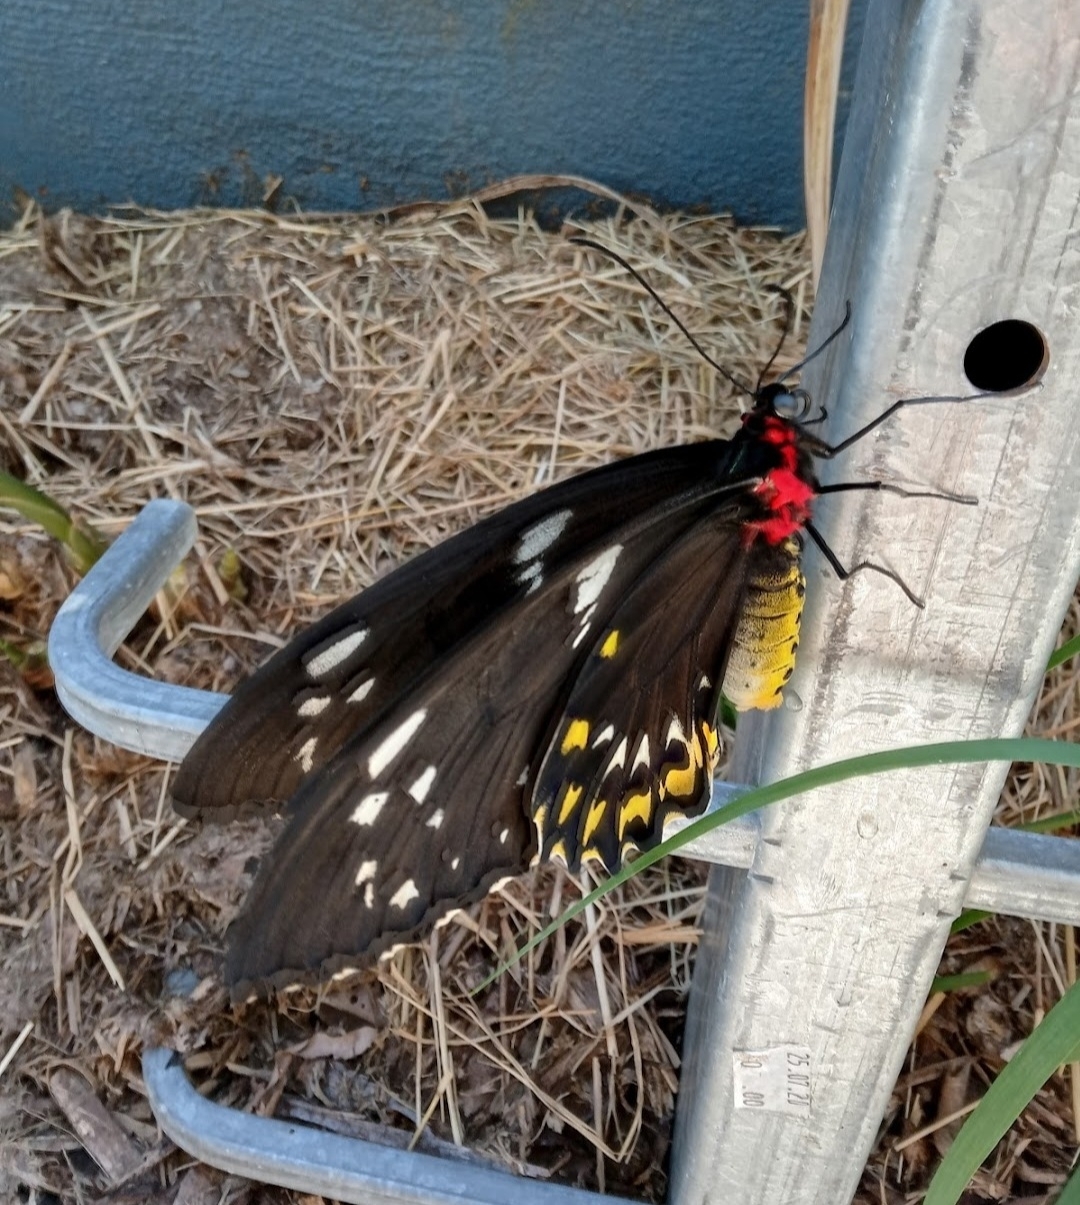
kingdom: Animalia
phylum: Arthropoda
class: Insecta
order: Lepidoptera
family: Papilionidae
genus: Ornithoptera
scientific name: Ornithoptera euphorion
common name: Cairns birdwing
